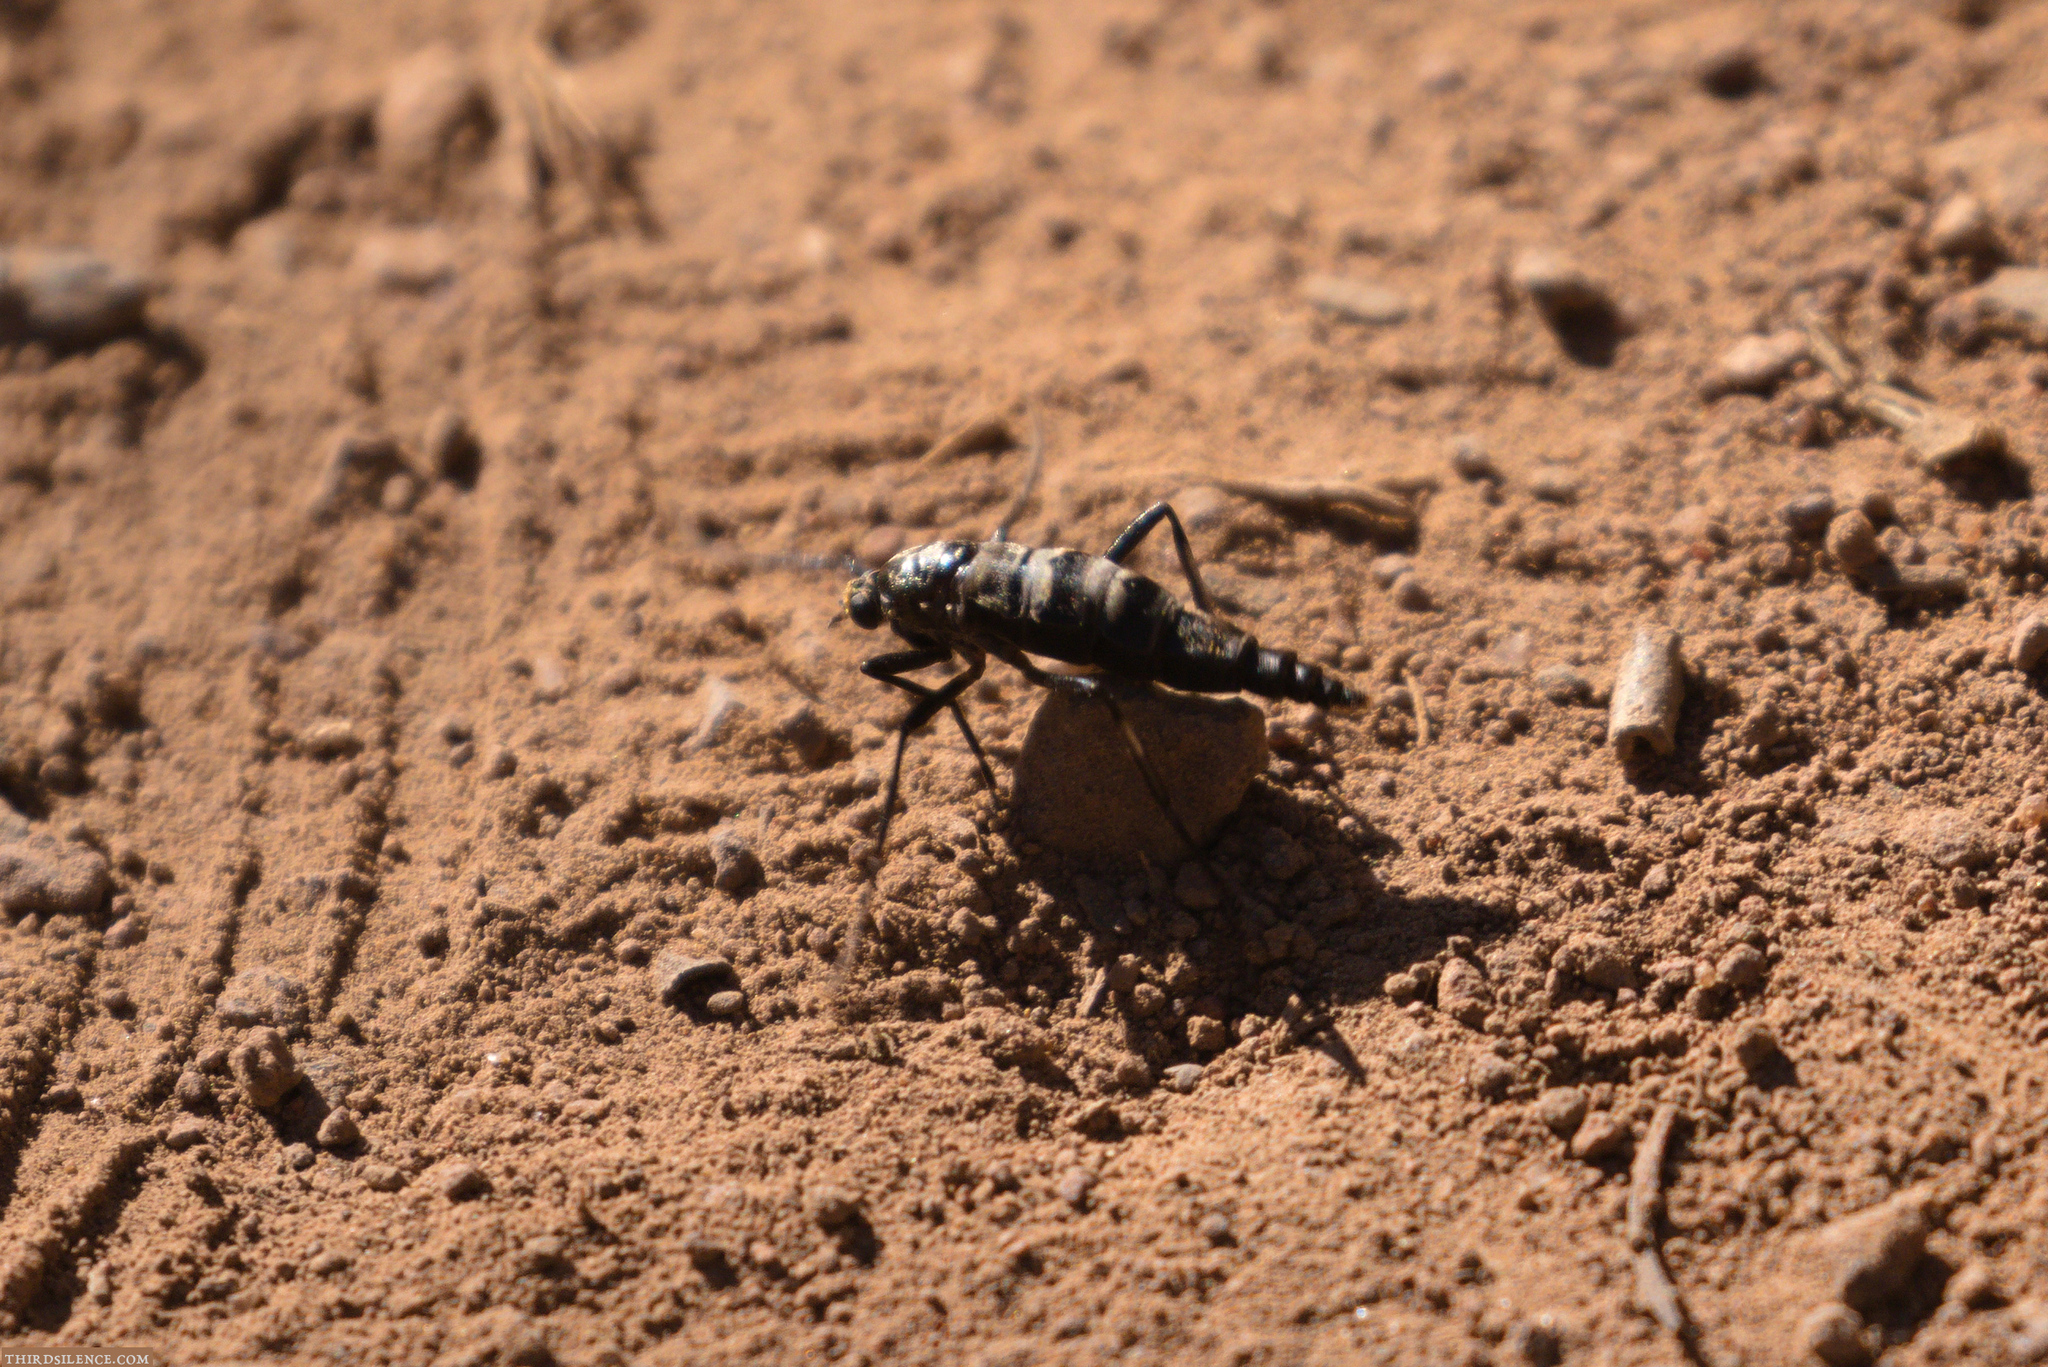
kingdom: Animalia
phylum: Arthropoda
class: Insecta
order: Diptera
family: Stratiomyidae
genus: Boreoides
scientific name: Boreoides subulatus
